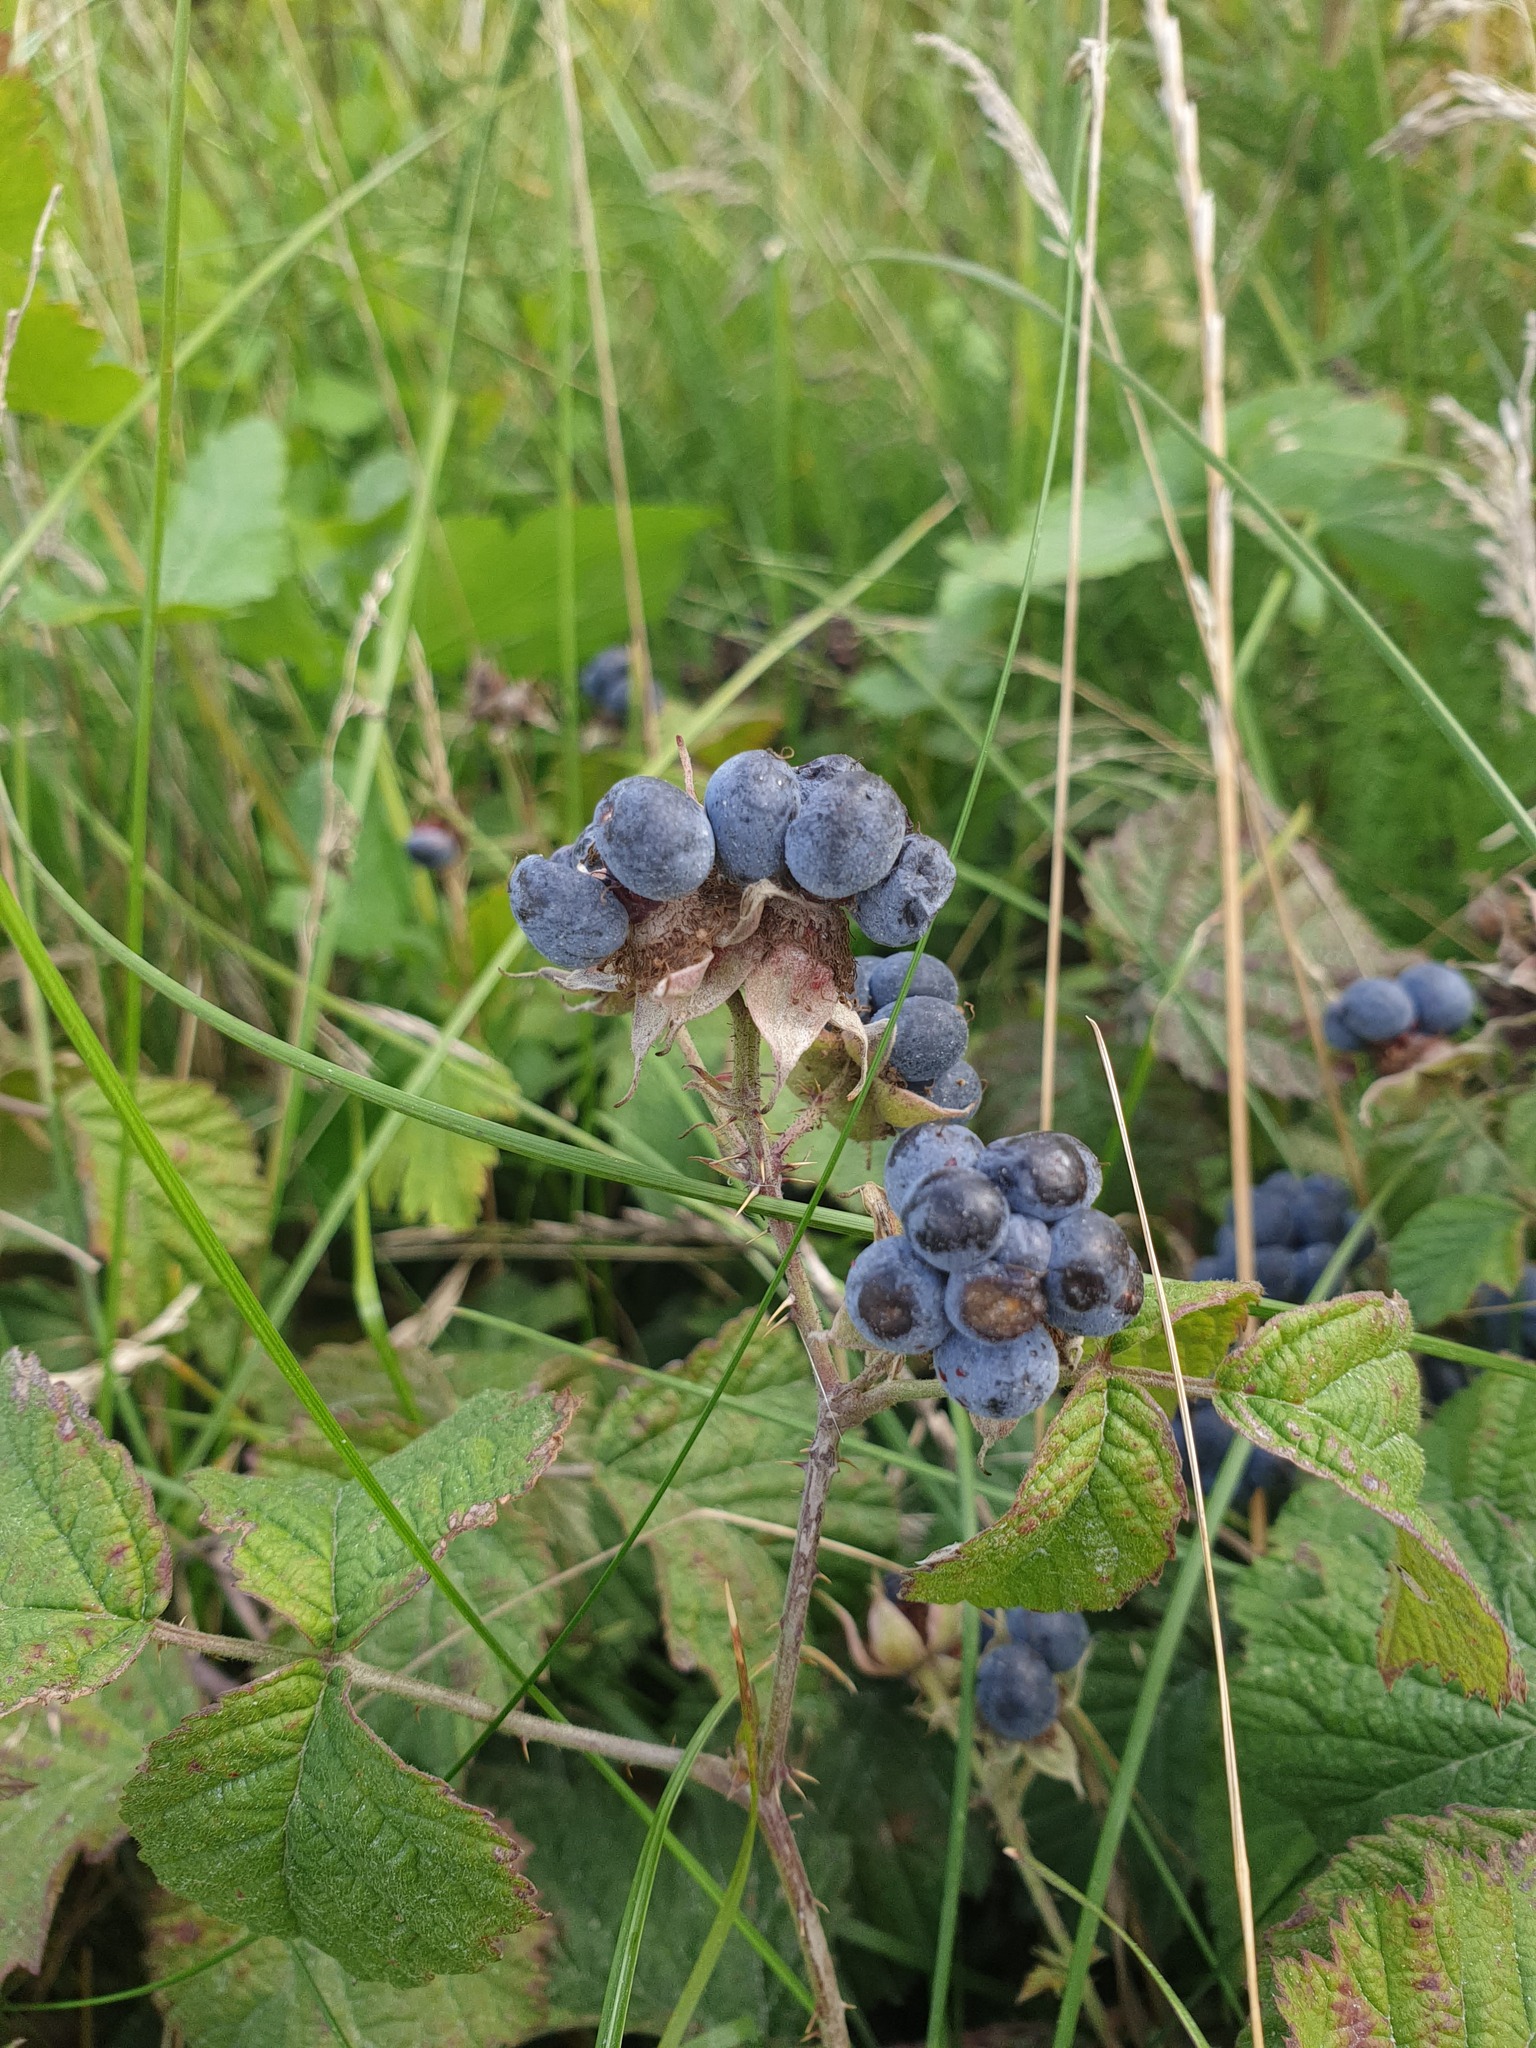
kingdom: Plantae
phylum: Tracheophyta
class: Magnoliopsida
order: Rosales
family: Rosaceae
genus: Rubus
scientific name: Rubus caesius
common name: Dewberry
